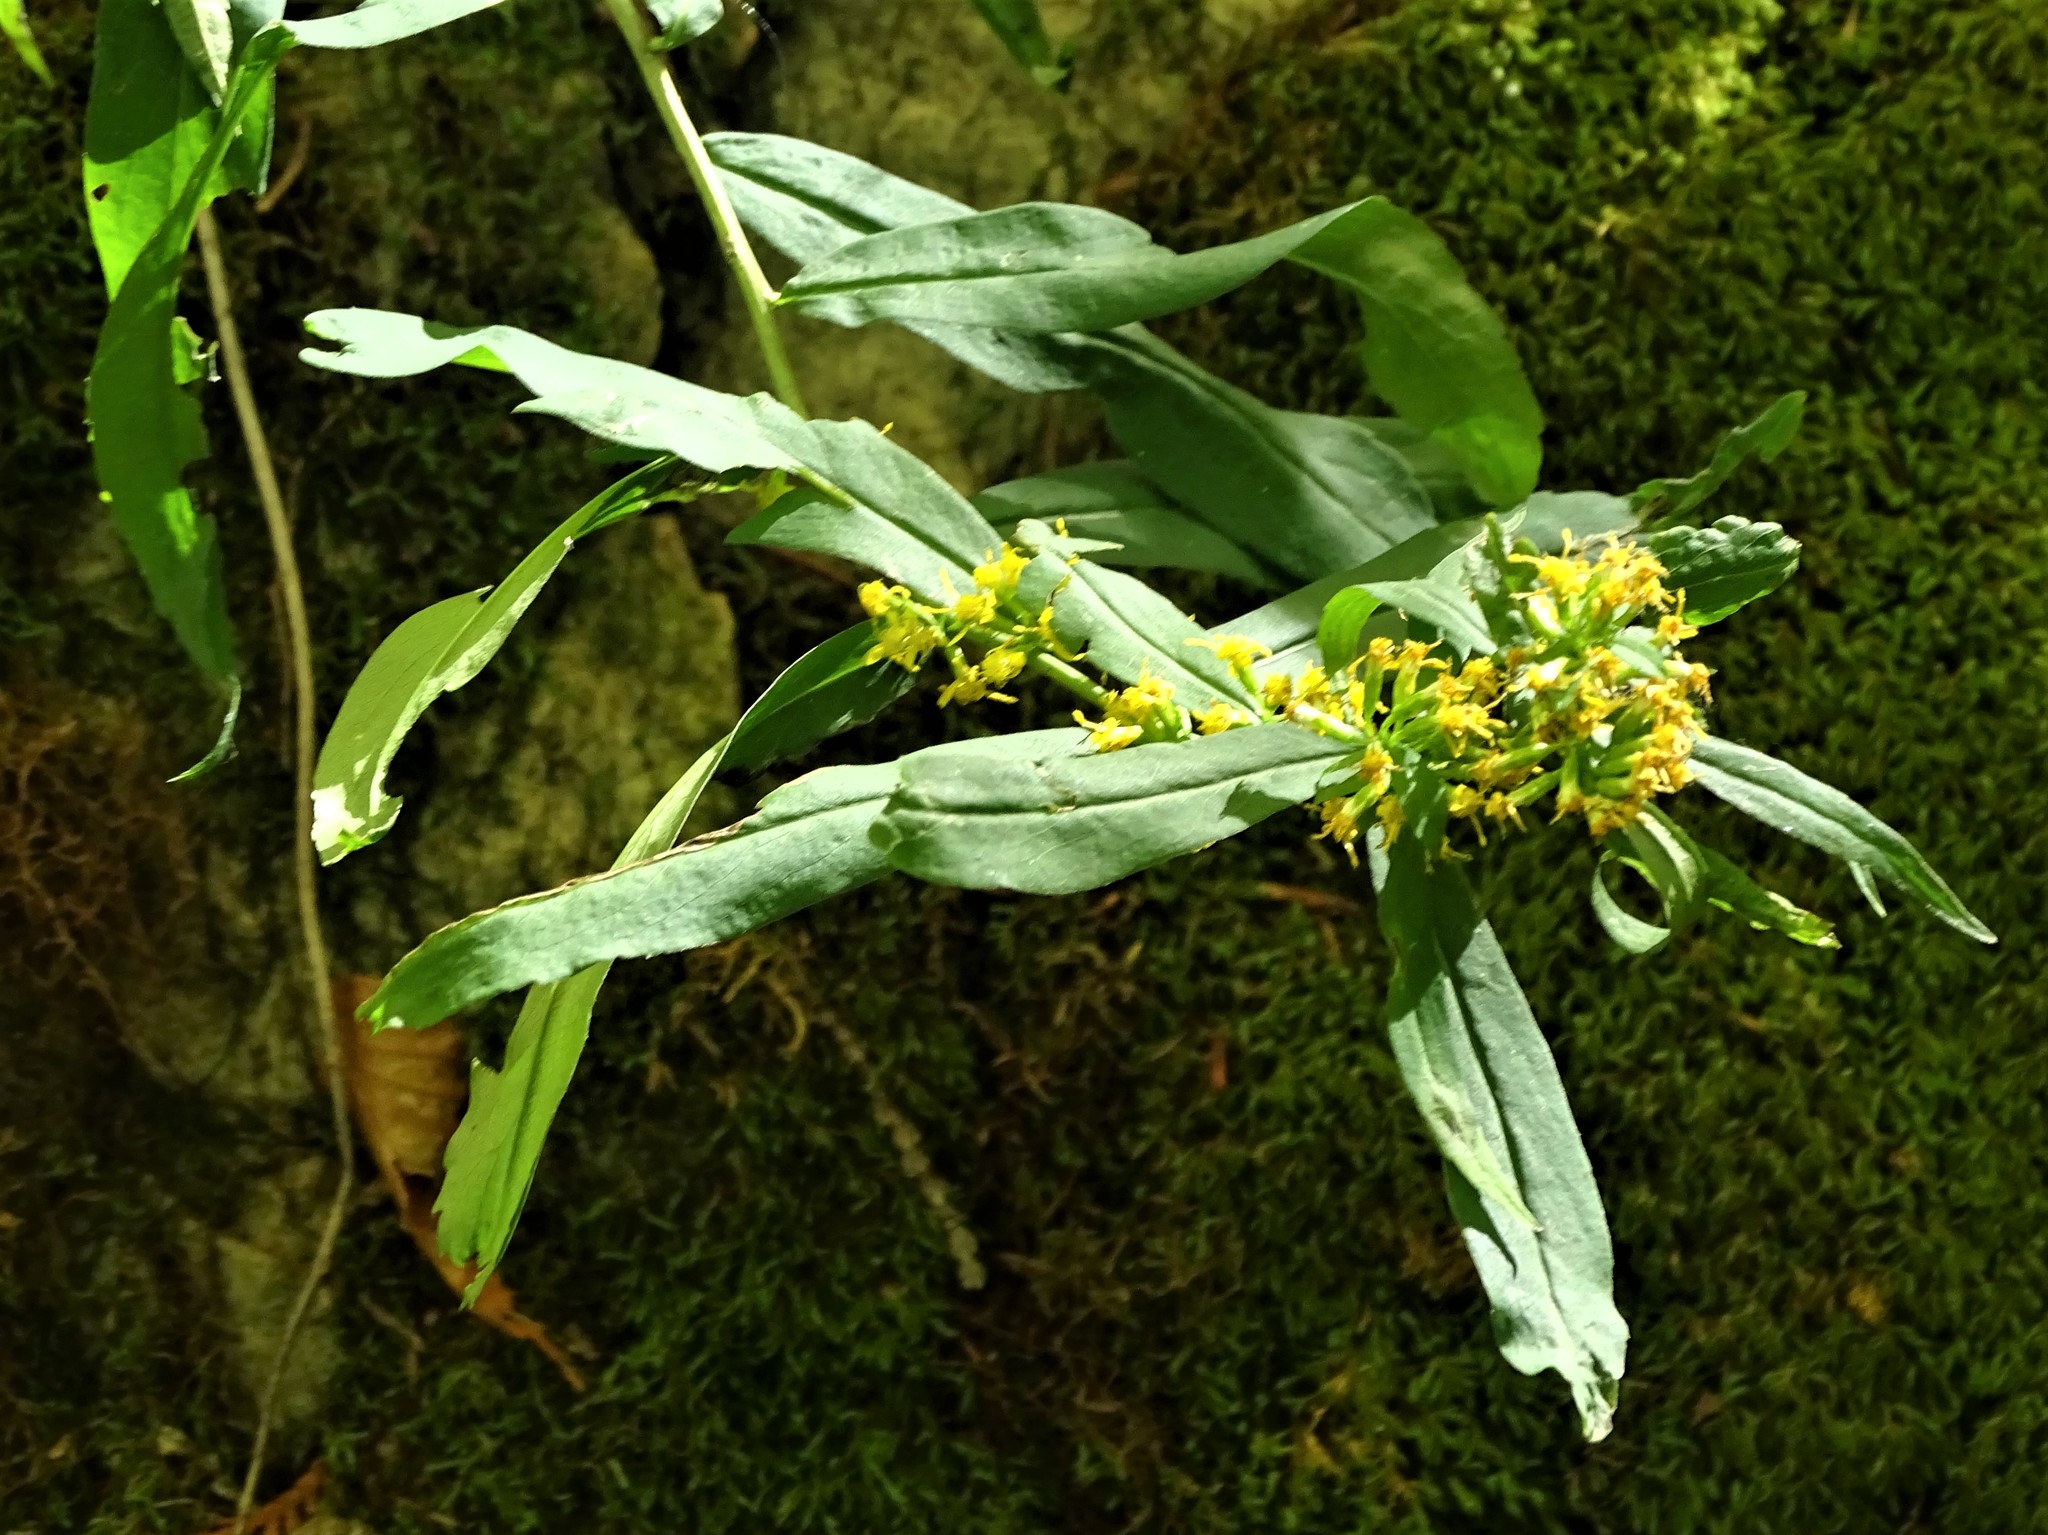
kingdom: Plantae
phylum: Tracheophyta
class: Magnoliopsida
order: Asterales
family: Asteraceae
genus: Solidago
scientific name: Solidago caesia
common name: Woodland goldenrod
